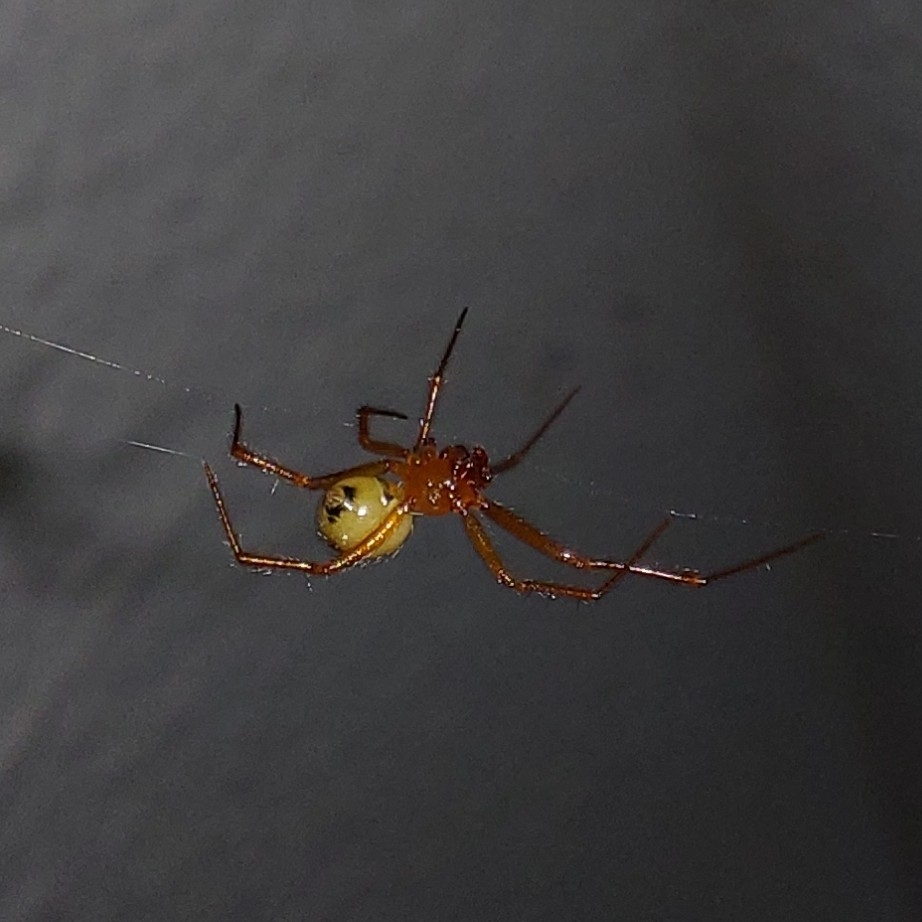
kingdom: Animalia
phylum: Arthropoda
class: Arachnida
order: Araneae
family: Theridiidae
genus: Nesticodes
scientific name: Nesticodes rufipes
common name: Cobweb spiders
